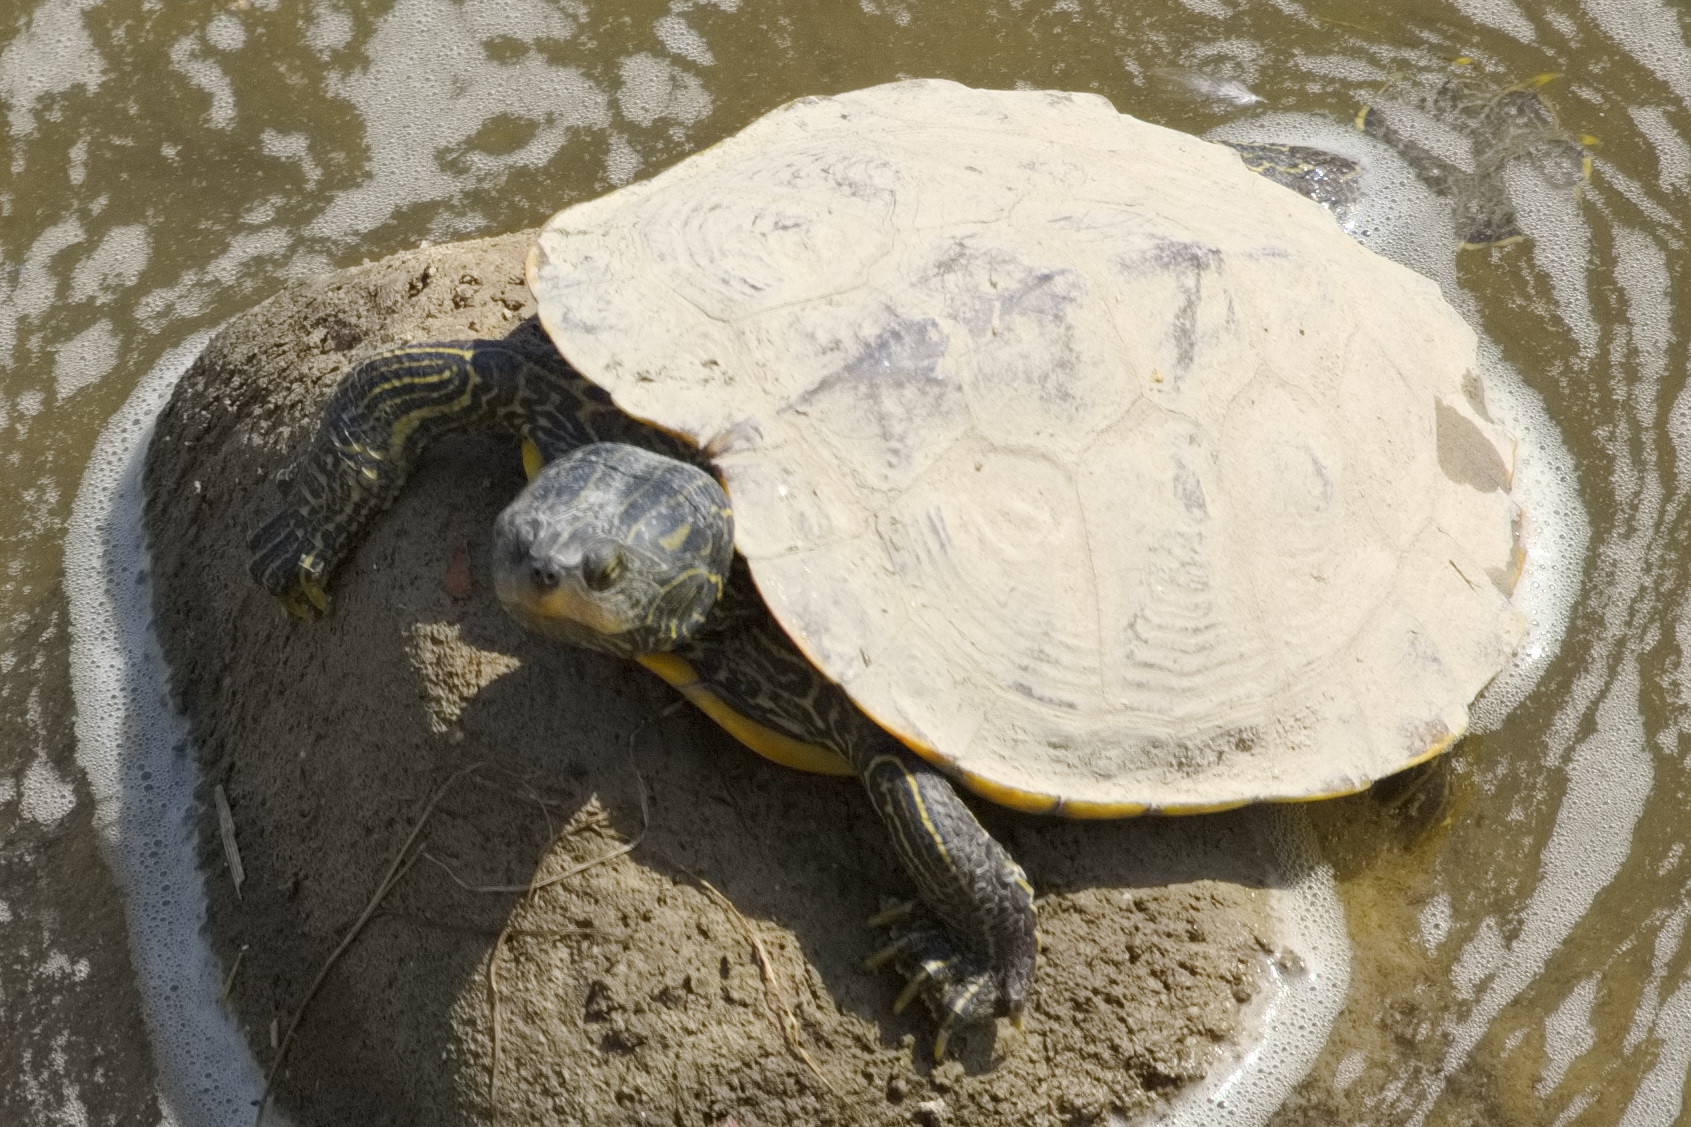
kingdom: Animalia
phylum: Chordata
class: Testudines
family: Emydidae
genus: Graptemys
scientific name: Graptemys geographica
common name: Common map turtle
